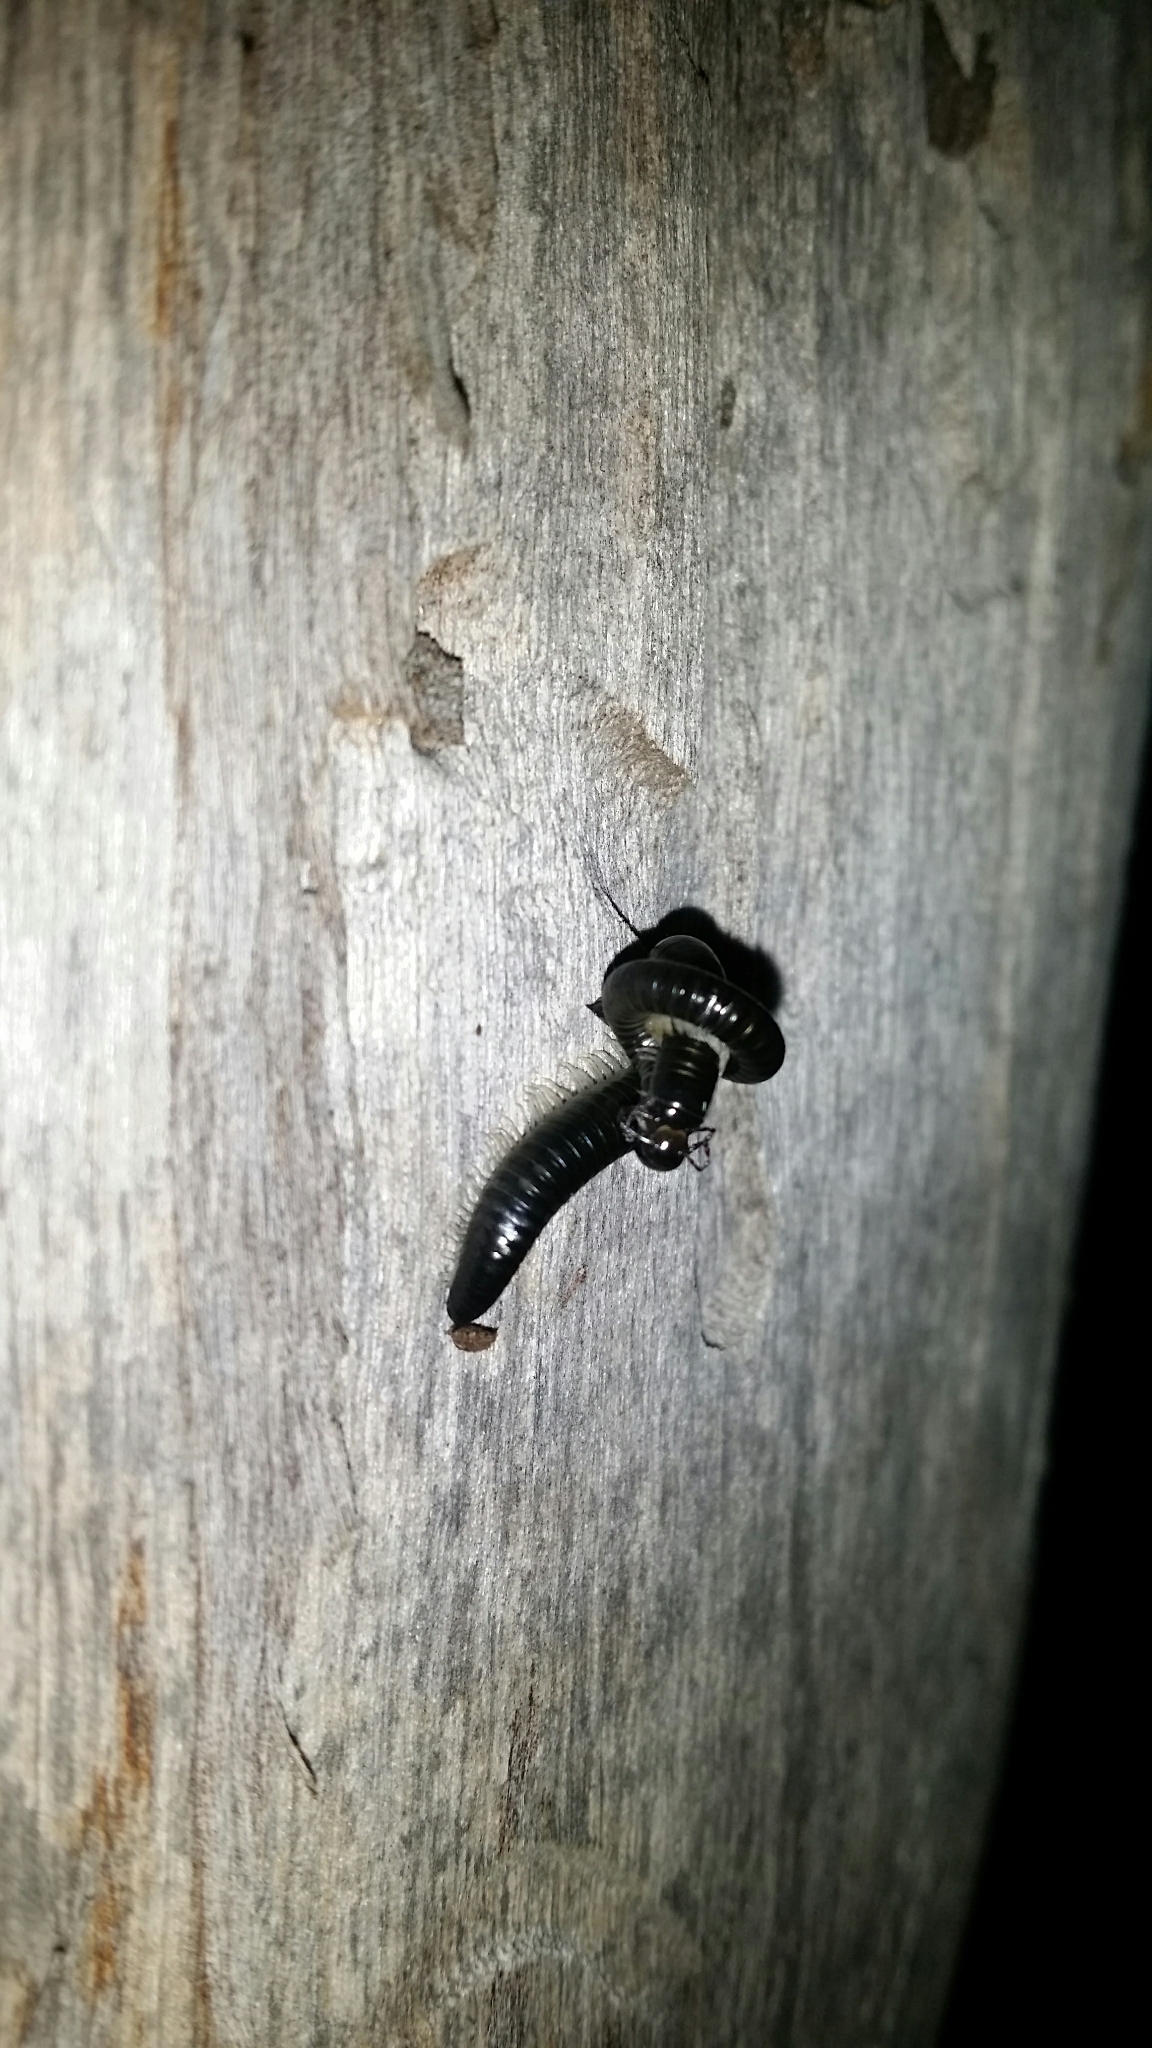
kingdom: Animalia
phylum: Arthropoda
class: Diplopoda
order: Julida
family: Julidae
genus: Ommatoiulus
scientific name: Ommatoiulus moreleti
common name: Portuguese millipede
